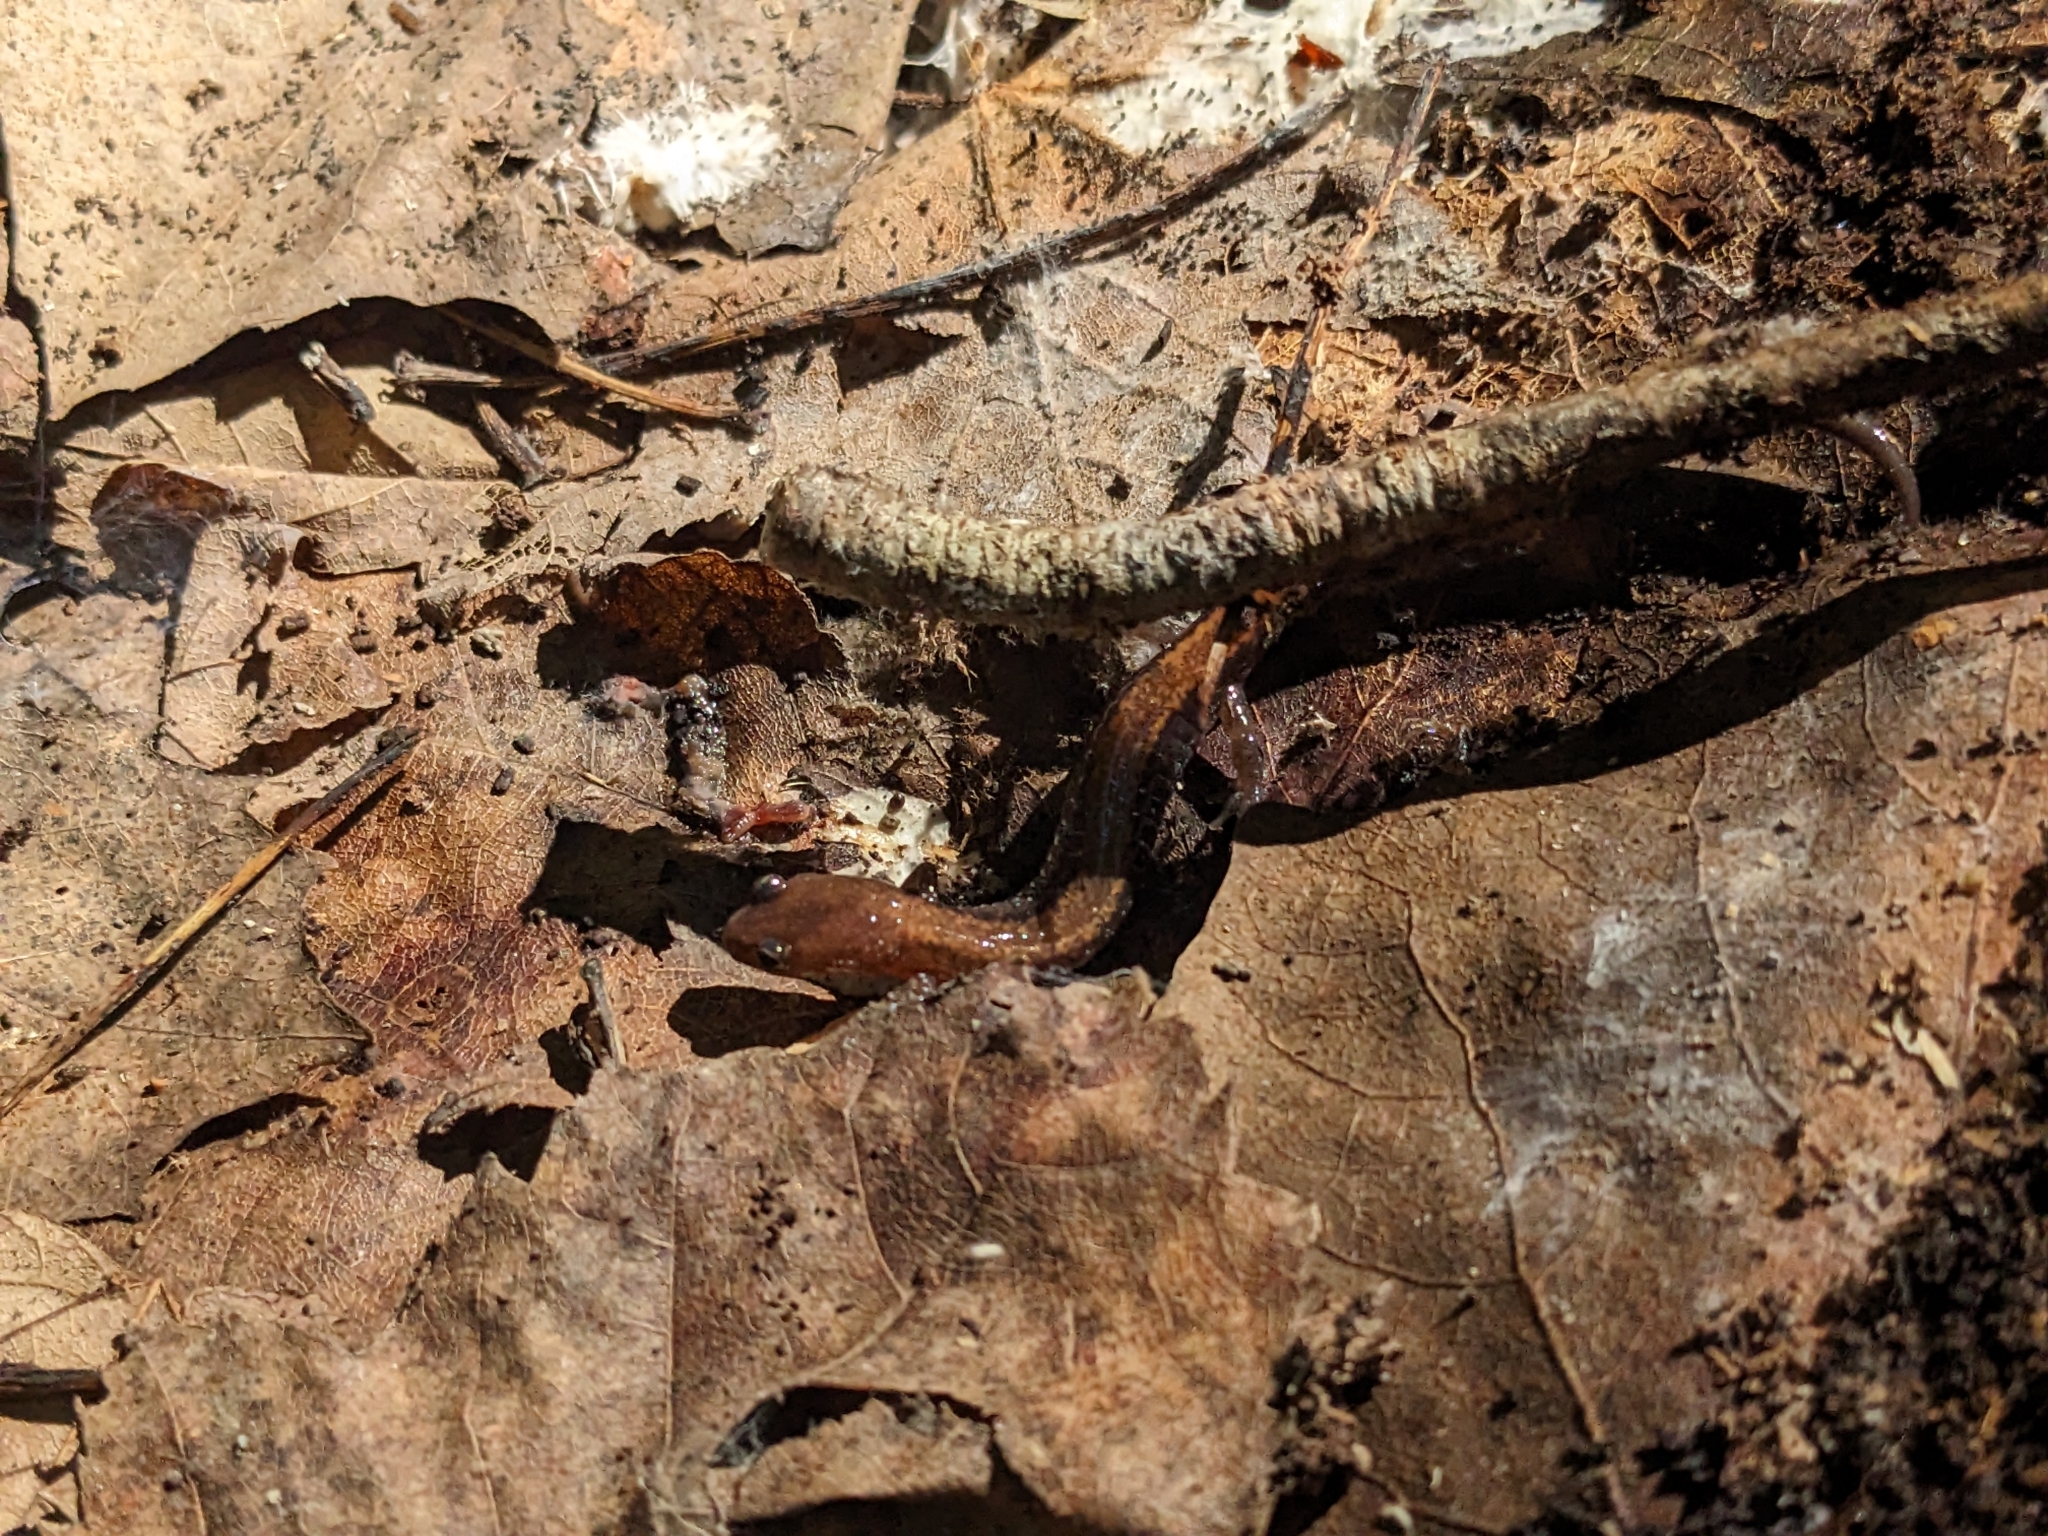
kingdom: Animalia
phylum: Chordata
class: Amphibia
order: Caudata
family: Plethodontidae
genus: Plethodon
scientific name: Plethodon cinereus
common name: Redback salamander
